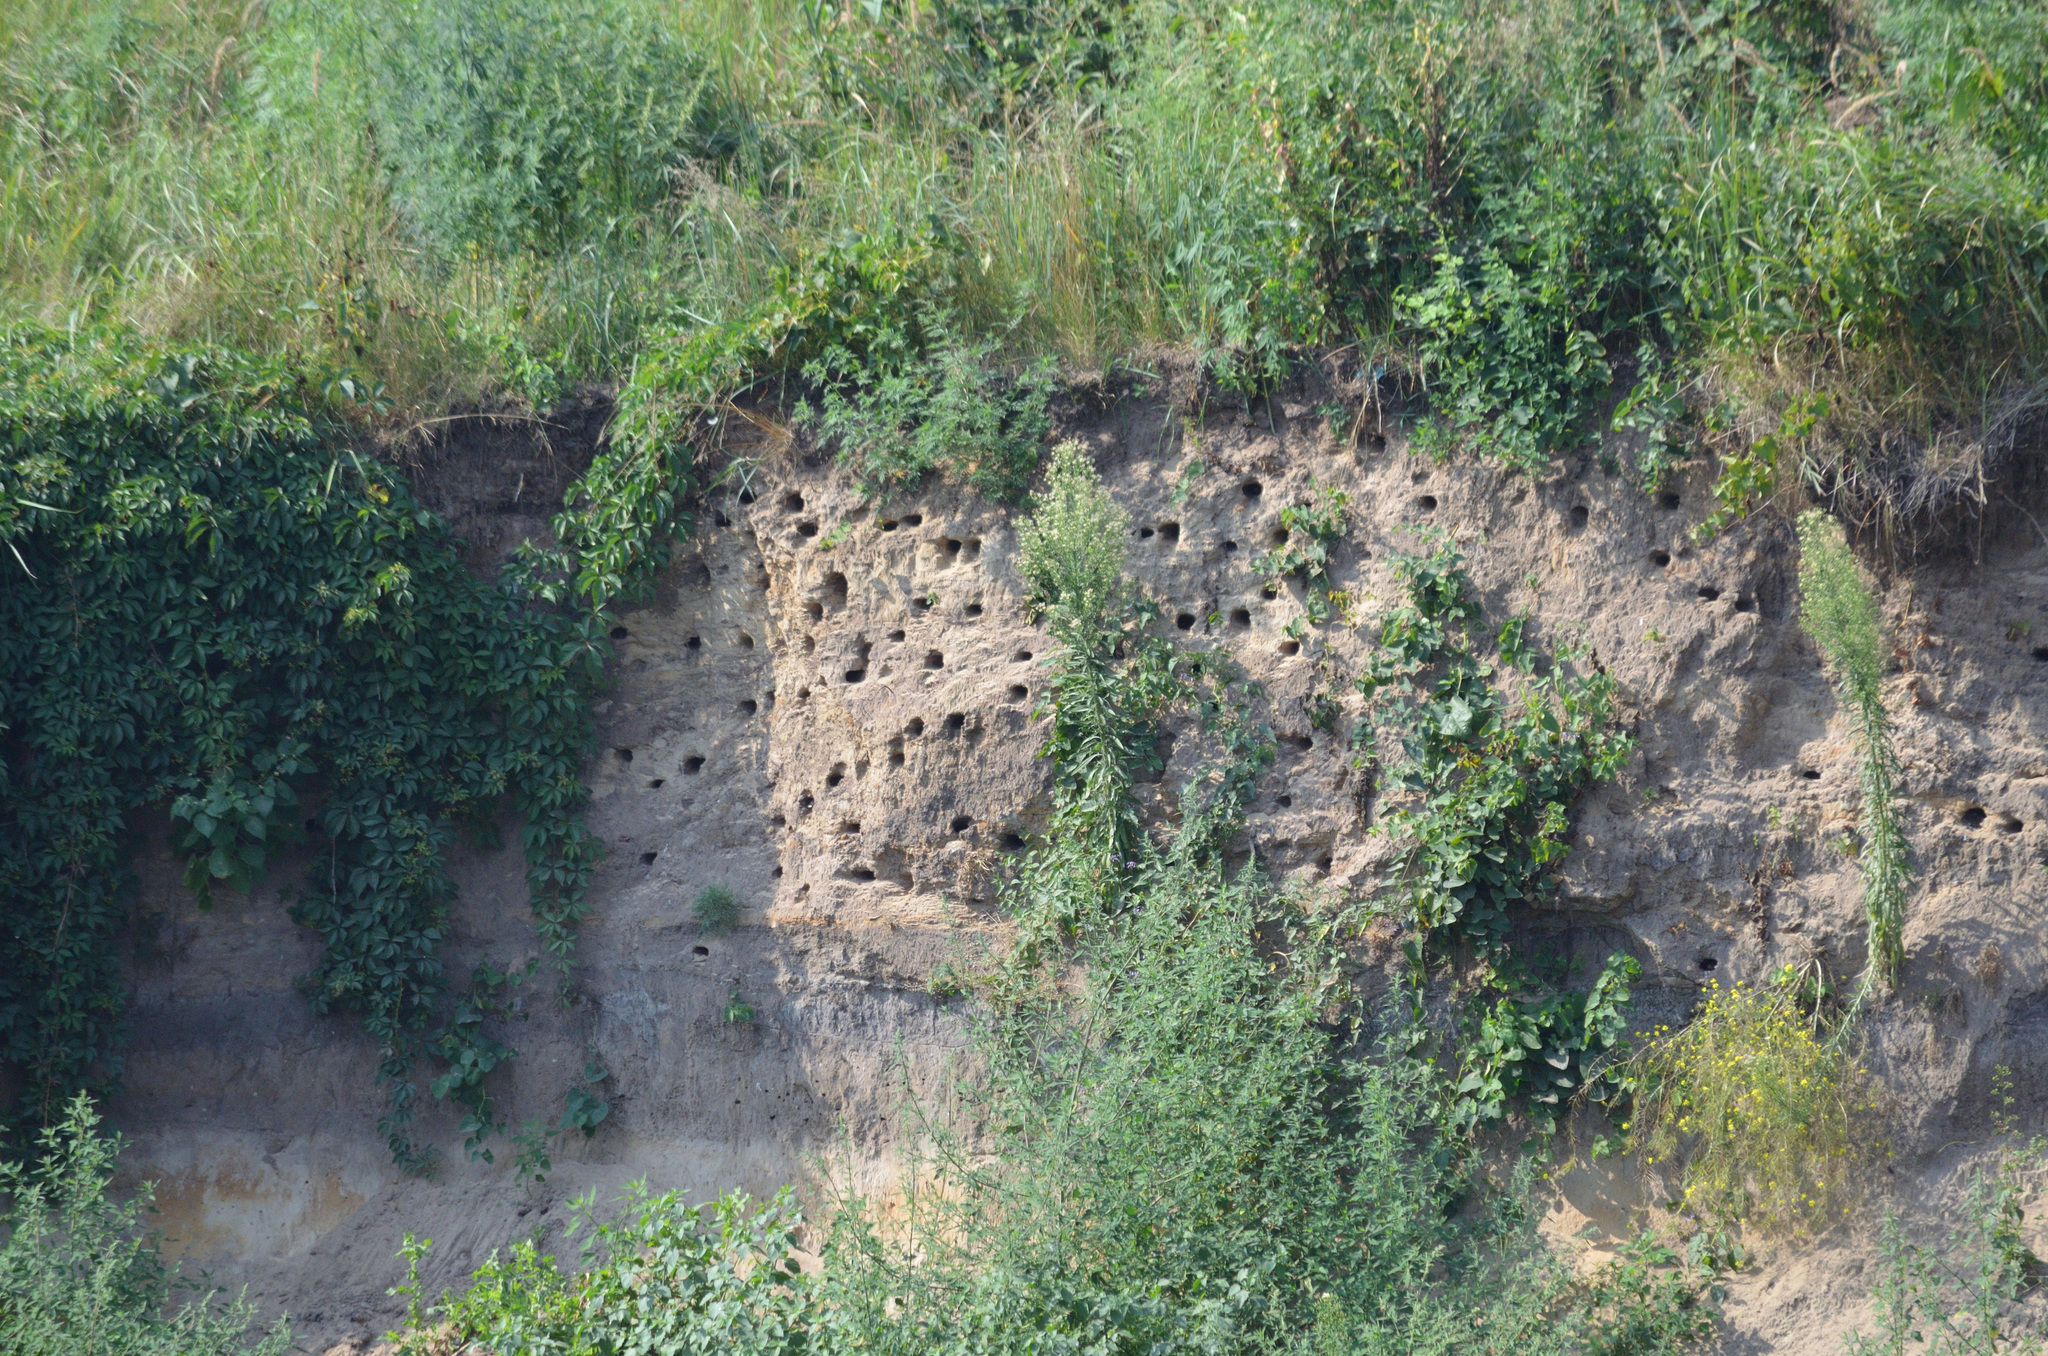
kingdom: Animalia
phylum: Chordata
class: Aves
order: Passeriformes
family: Hirundinidae
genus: Riparia
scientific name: Riparia riparia
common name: Sand martin
